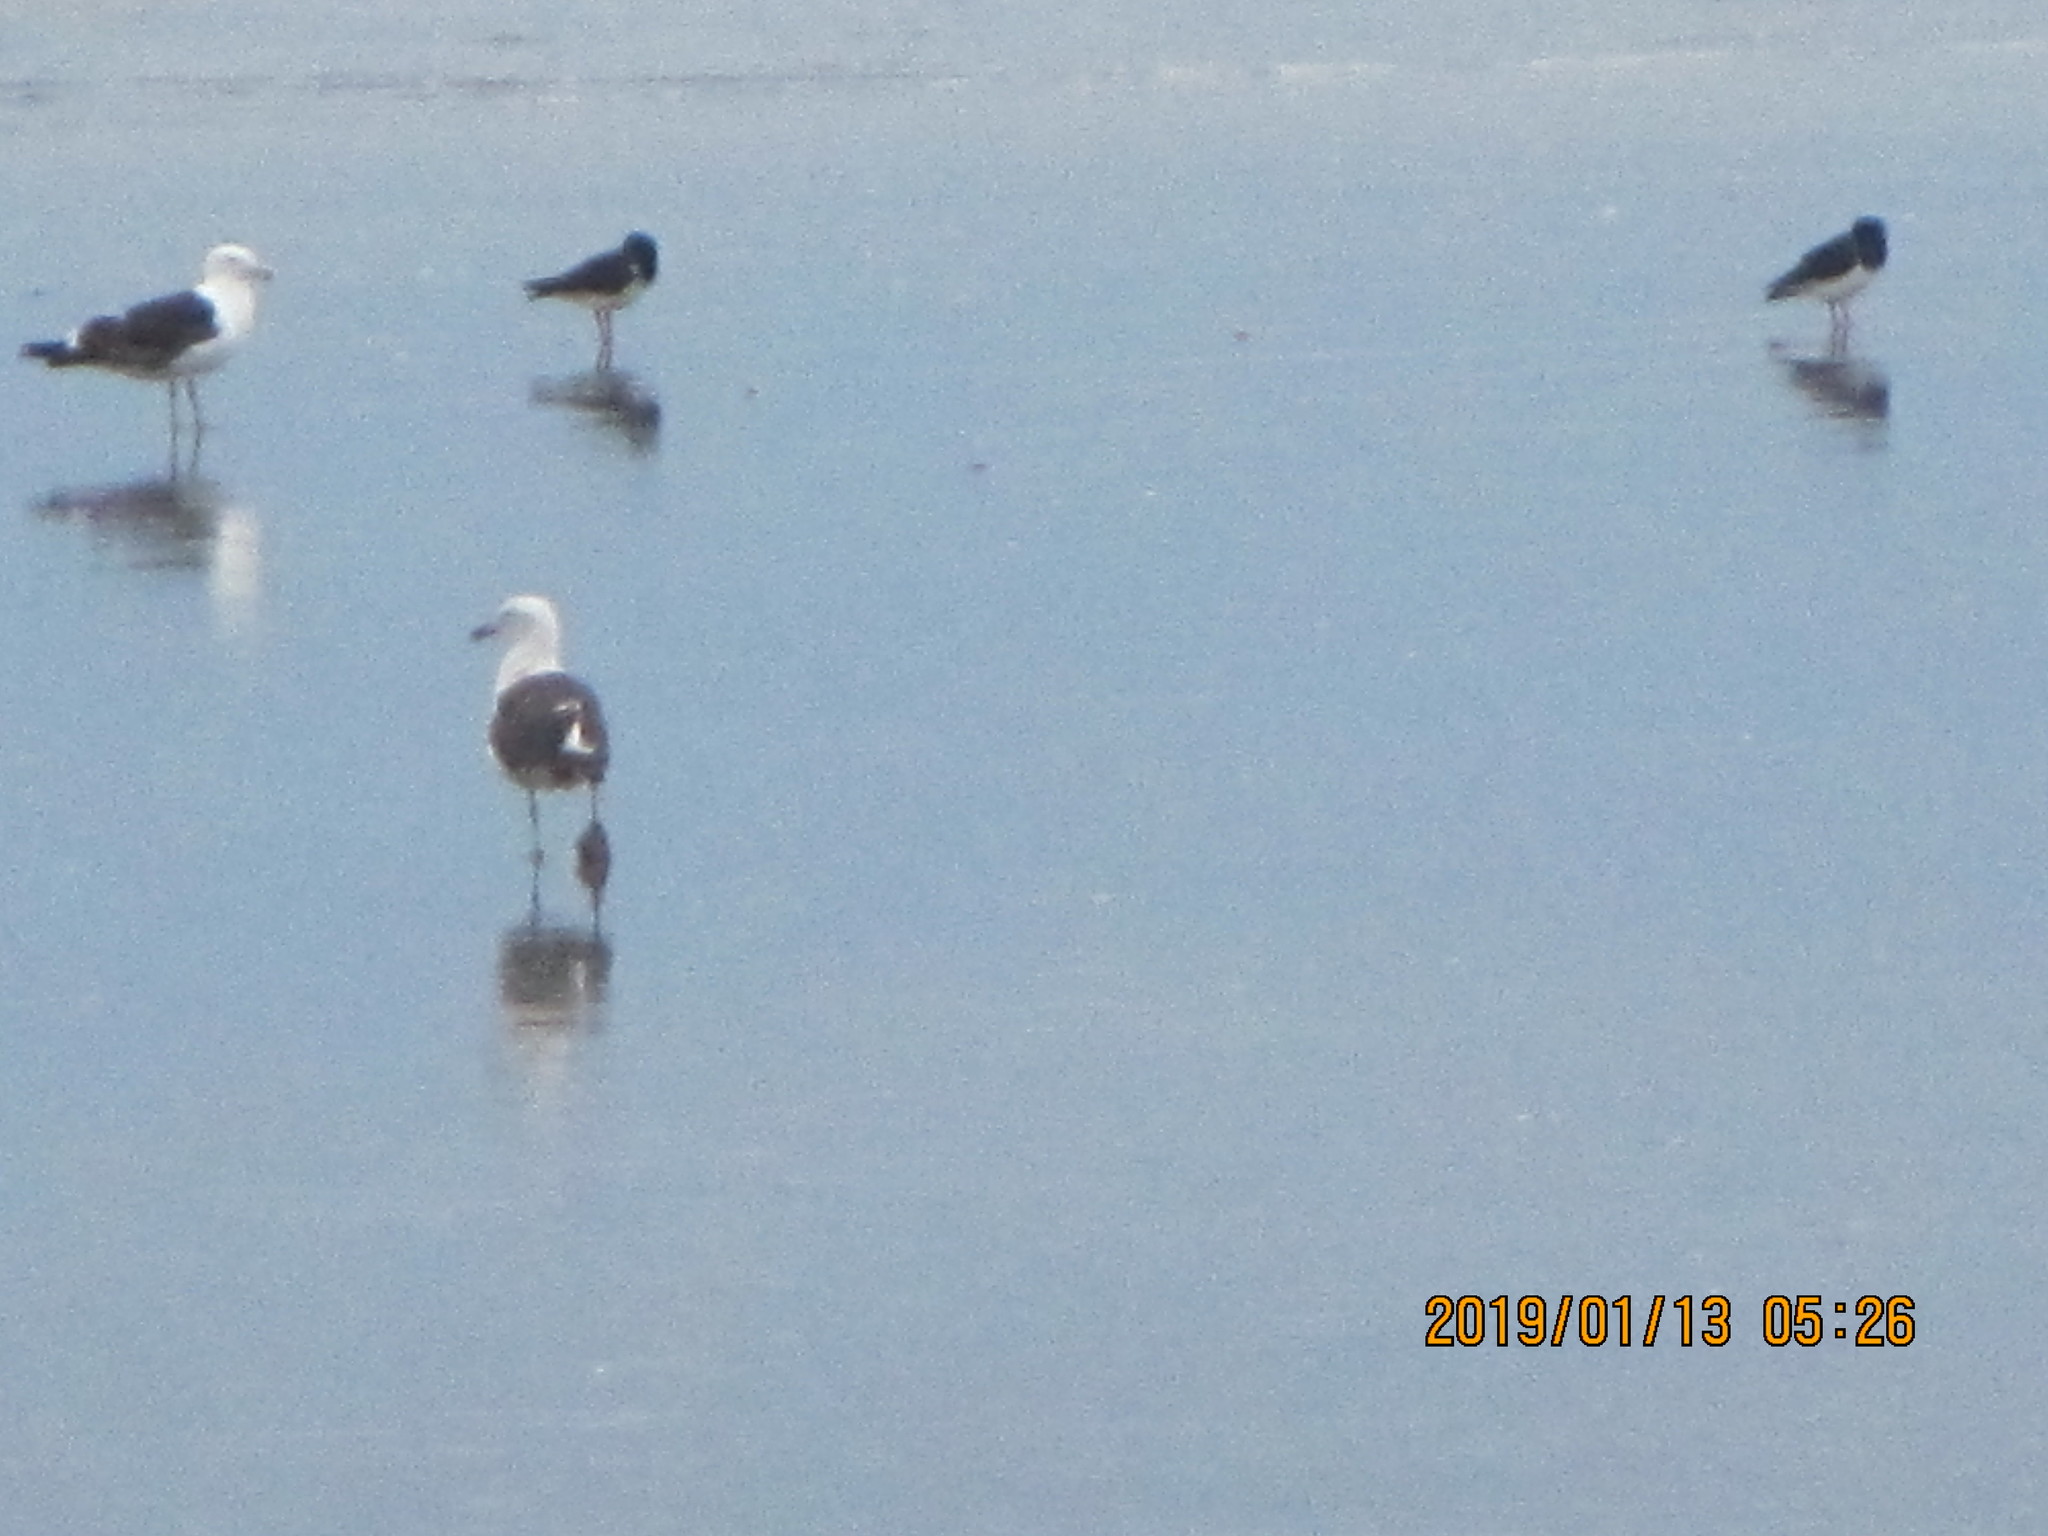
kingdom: Animalia
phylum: Chordata
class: Aves
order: Charadriiformes
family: Haematopodidae
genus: Haematopus
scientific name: Haematopus finschi
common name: South island oystercatcher
